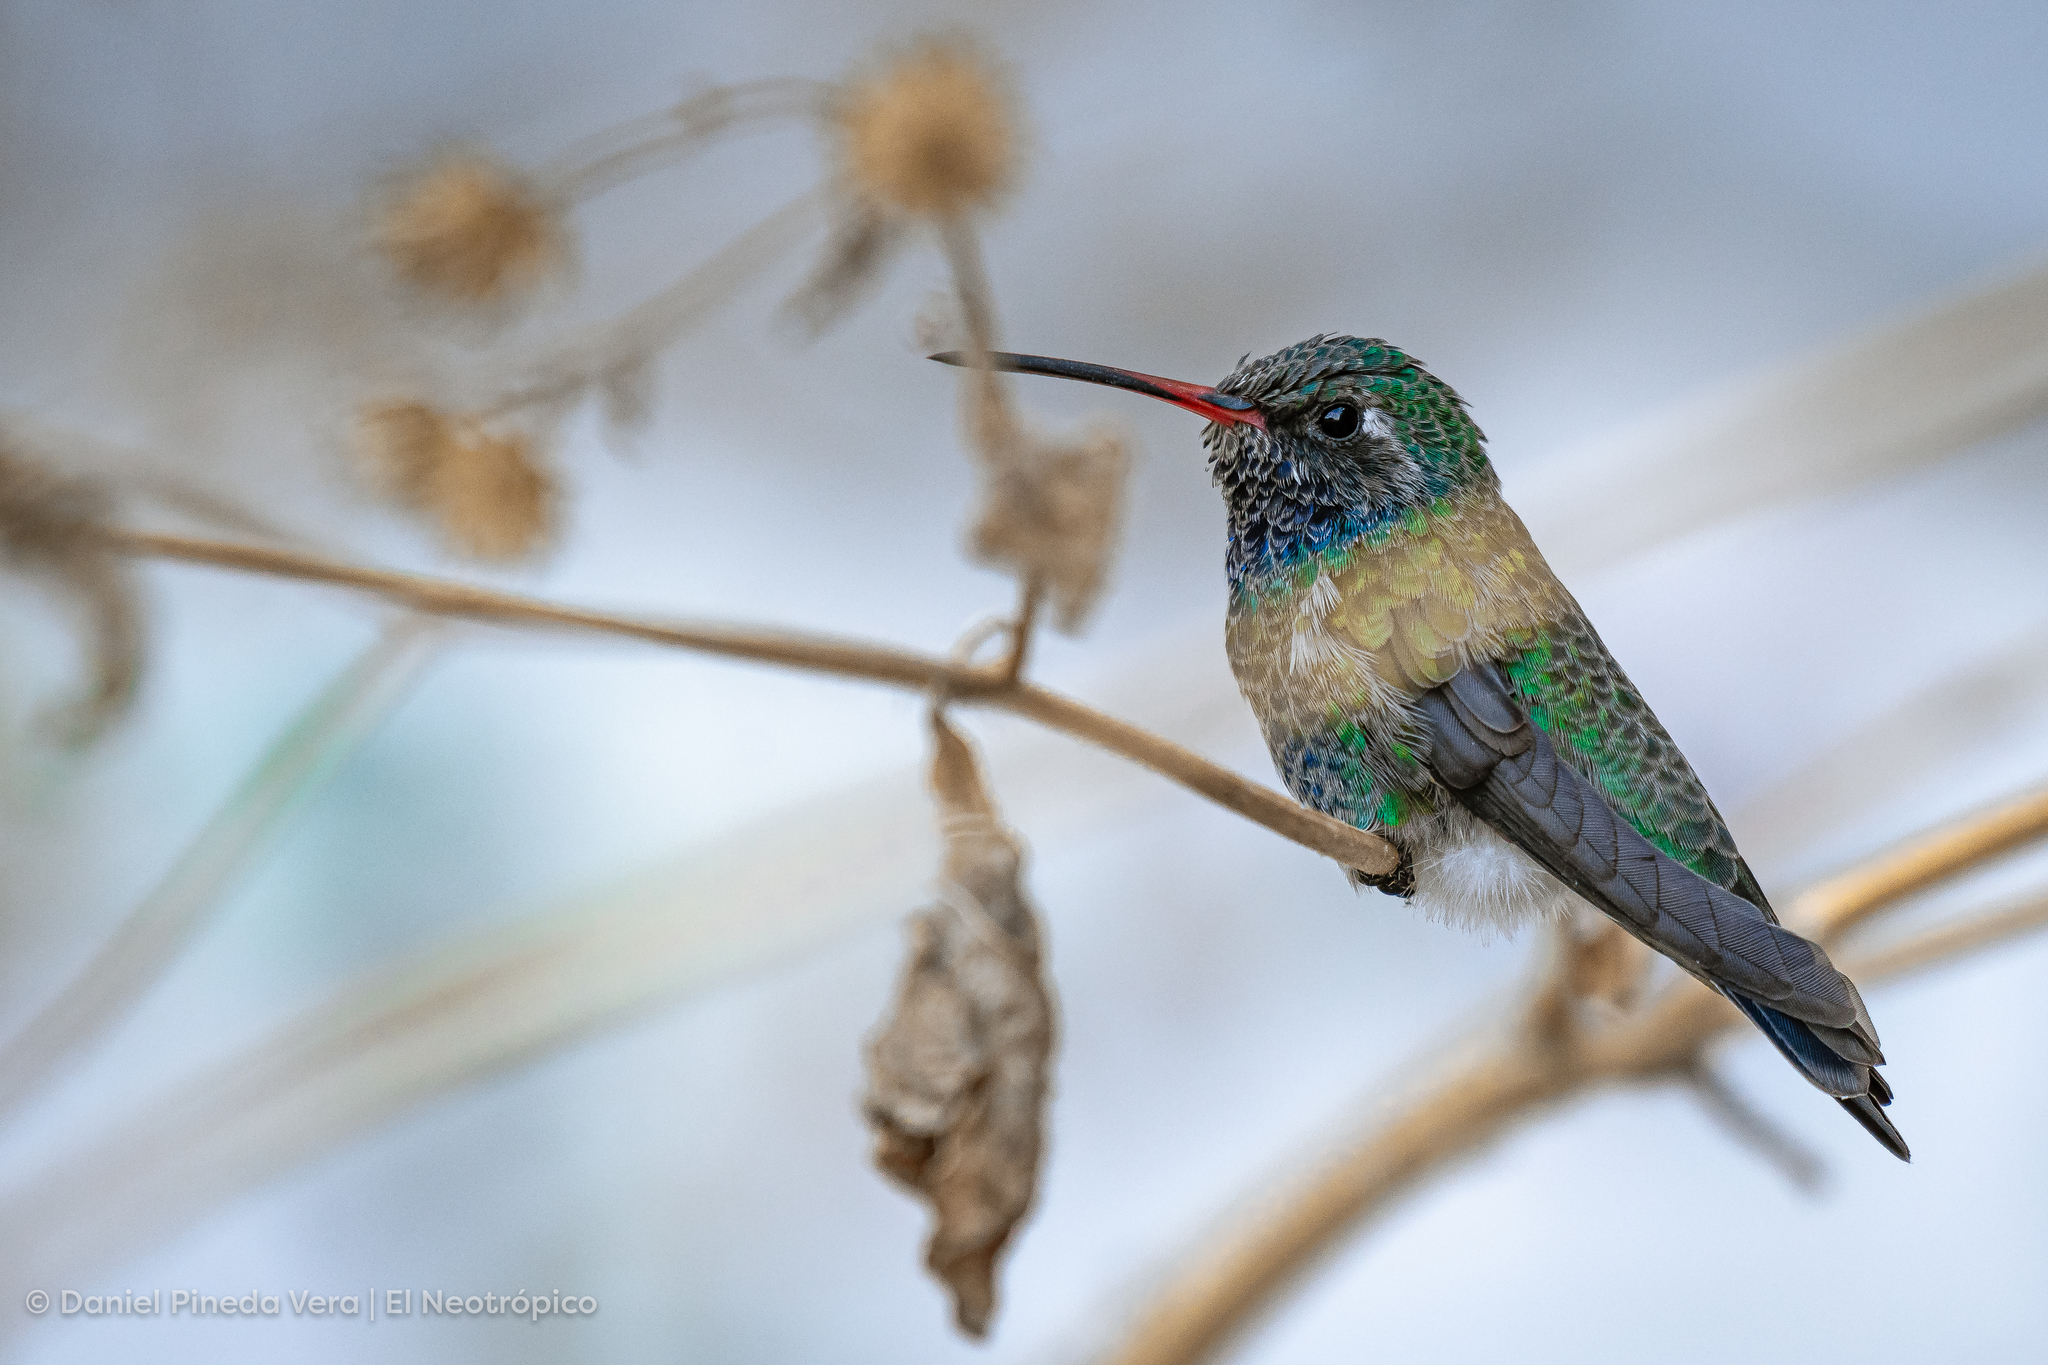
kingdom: Animalia
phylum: Chordata
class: Aves
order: Apodiformes
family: Trochilidae
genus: Cynanthus
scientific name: Cynanthus latirostris
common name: Broad-billed hummingbird
